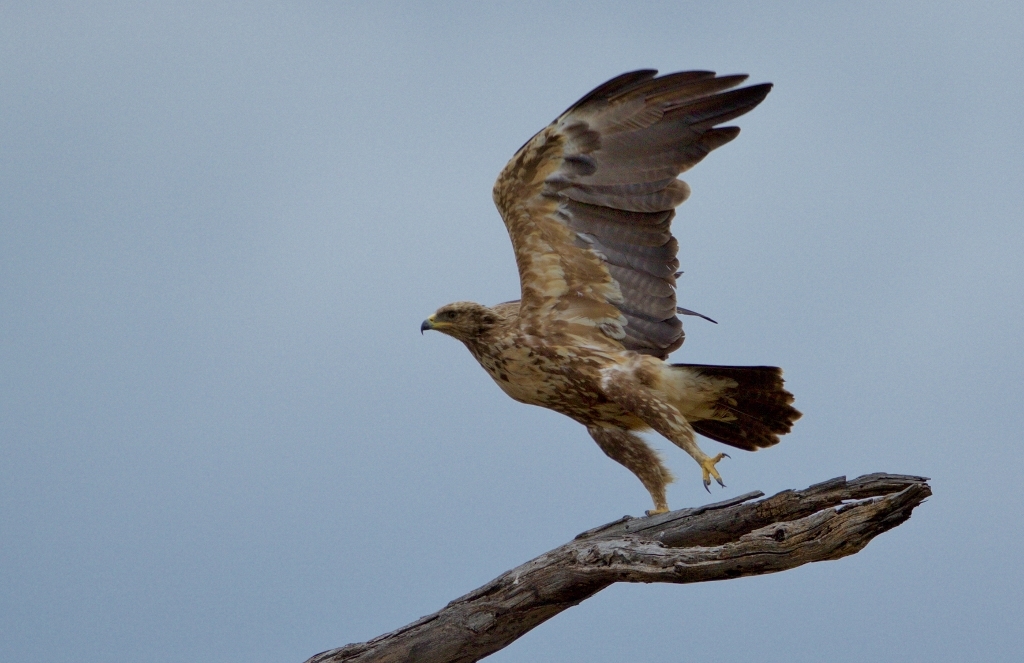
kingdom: Animalia
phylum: Chordata
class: Aves
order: Accipitriformes
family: Accipitridae
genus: Aquila
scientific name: Aquila pomarina
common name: Lesser spotted eagle
